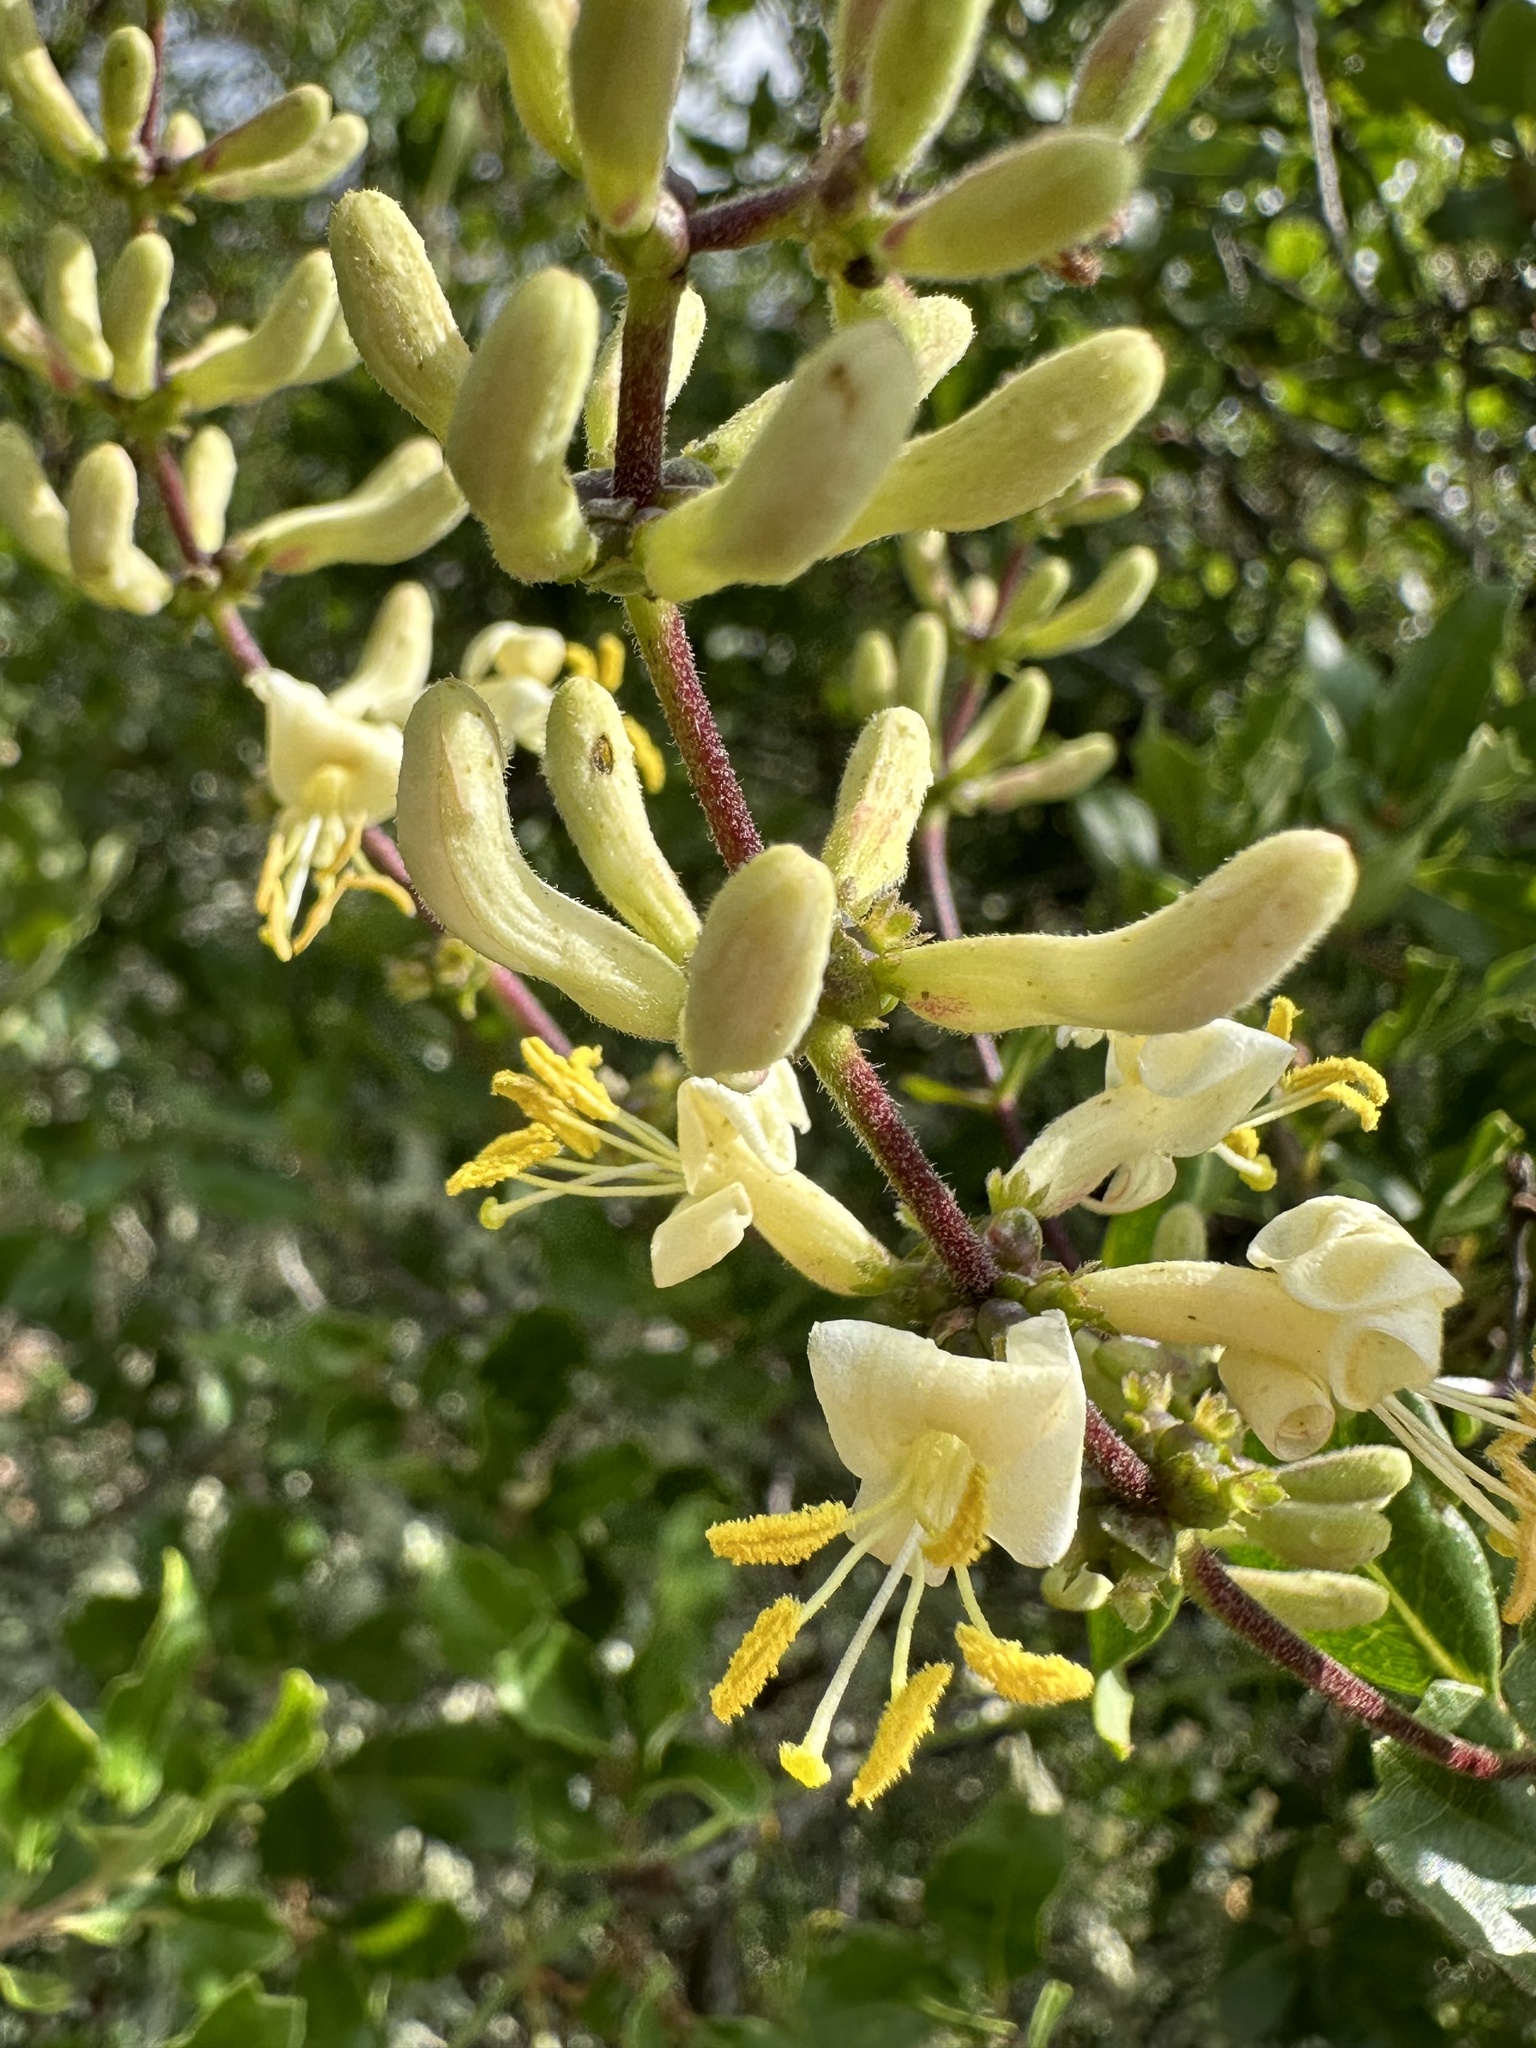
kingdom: Plantae
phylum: Tracheophyta
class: Magnoliopsida
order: Dipsacales
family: Caprifoliaceae
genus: Lonicera
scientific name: Lonicera subspicata
